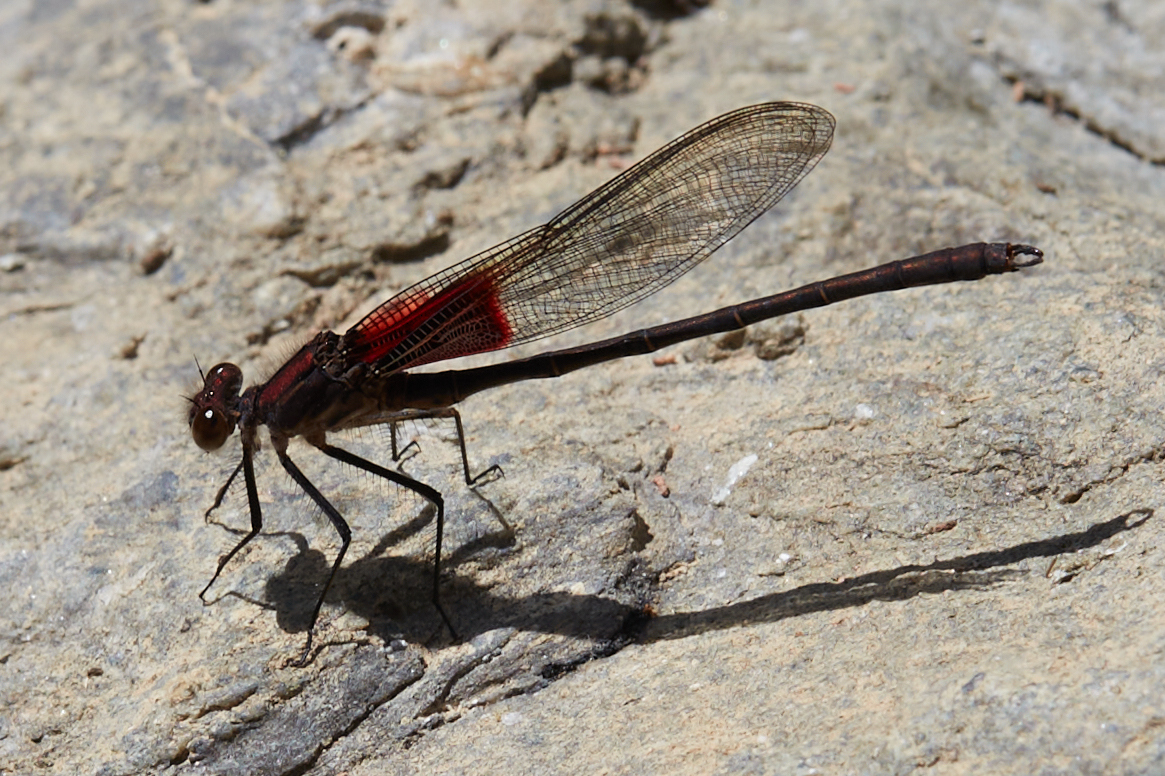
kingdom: Animalia
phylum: Arthropoda
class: Insecta
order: Odonata
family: Calopterygidae
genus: Hetaerina
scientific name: Hetaerina americana
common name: American rubyspot
